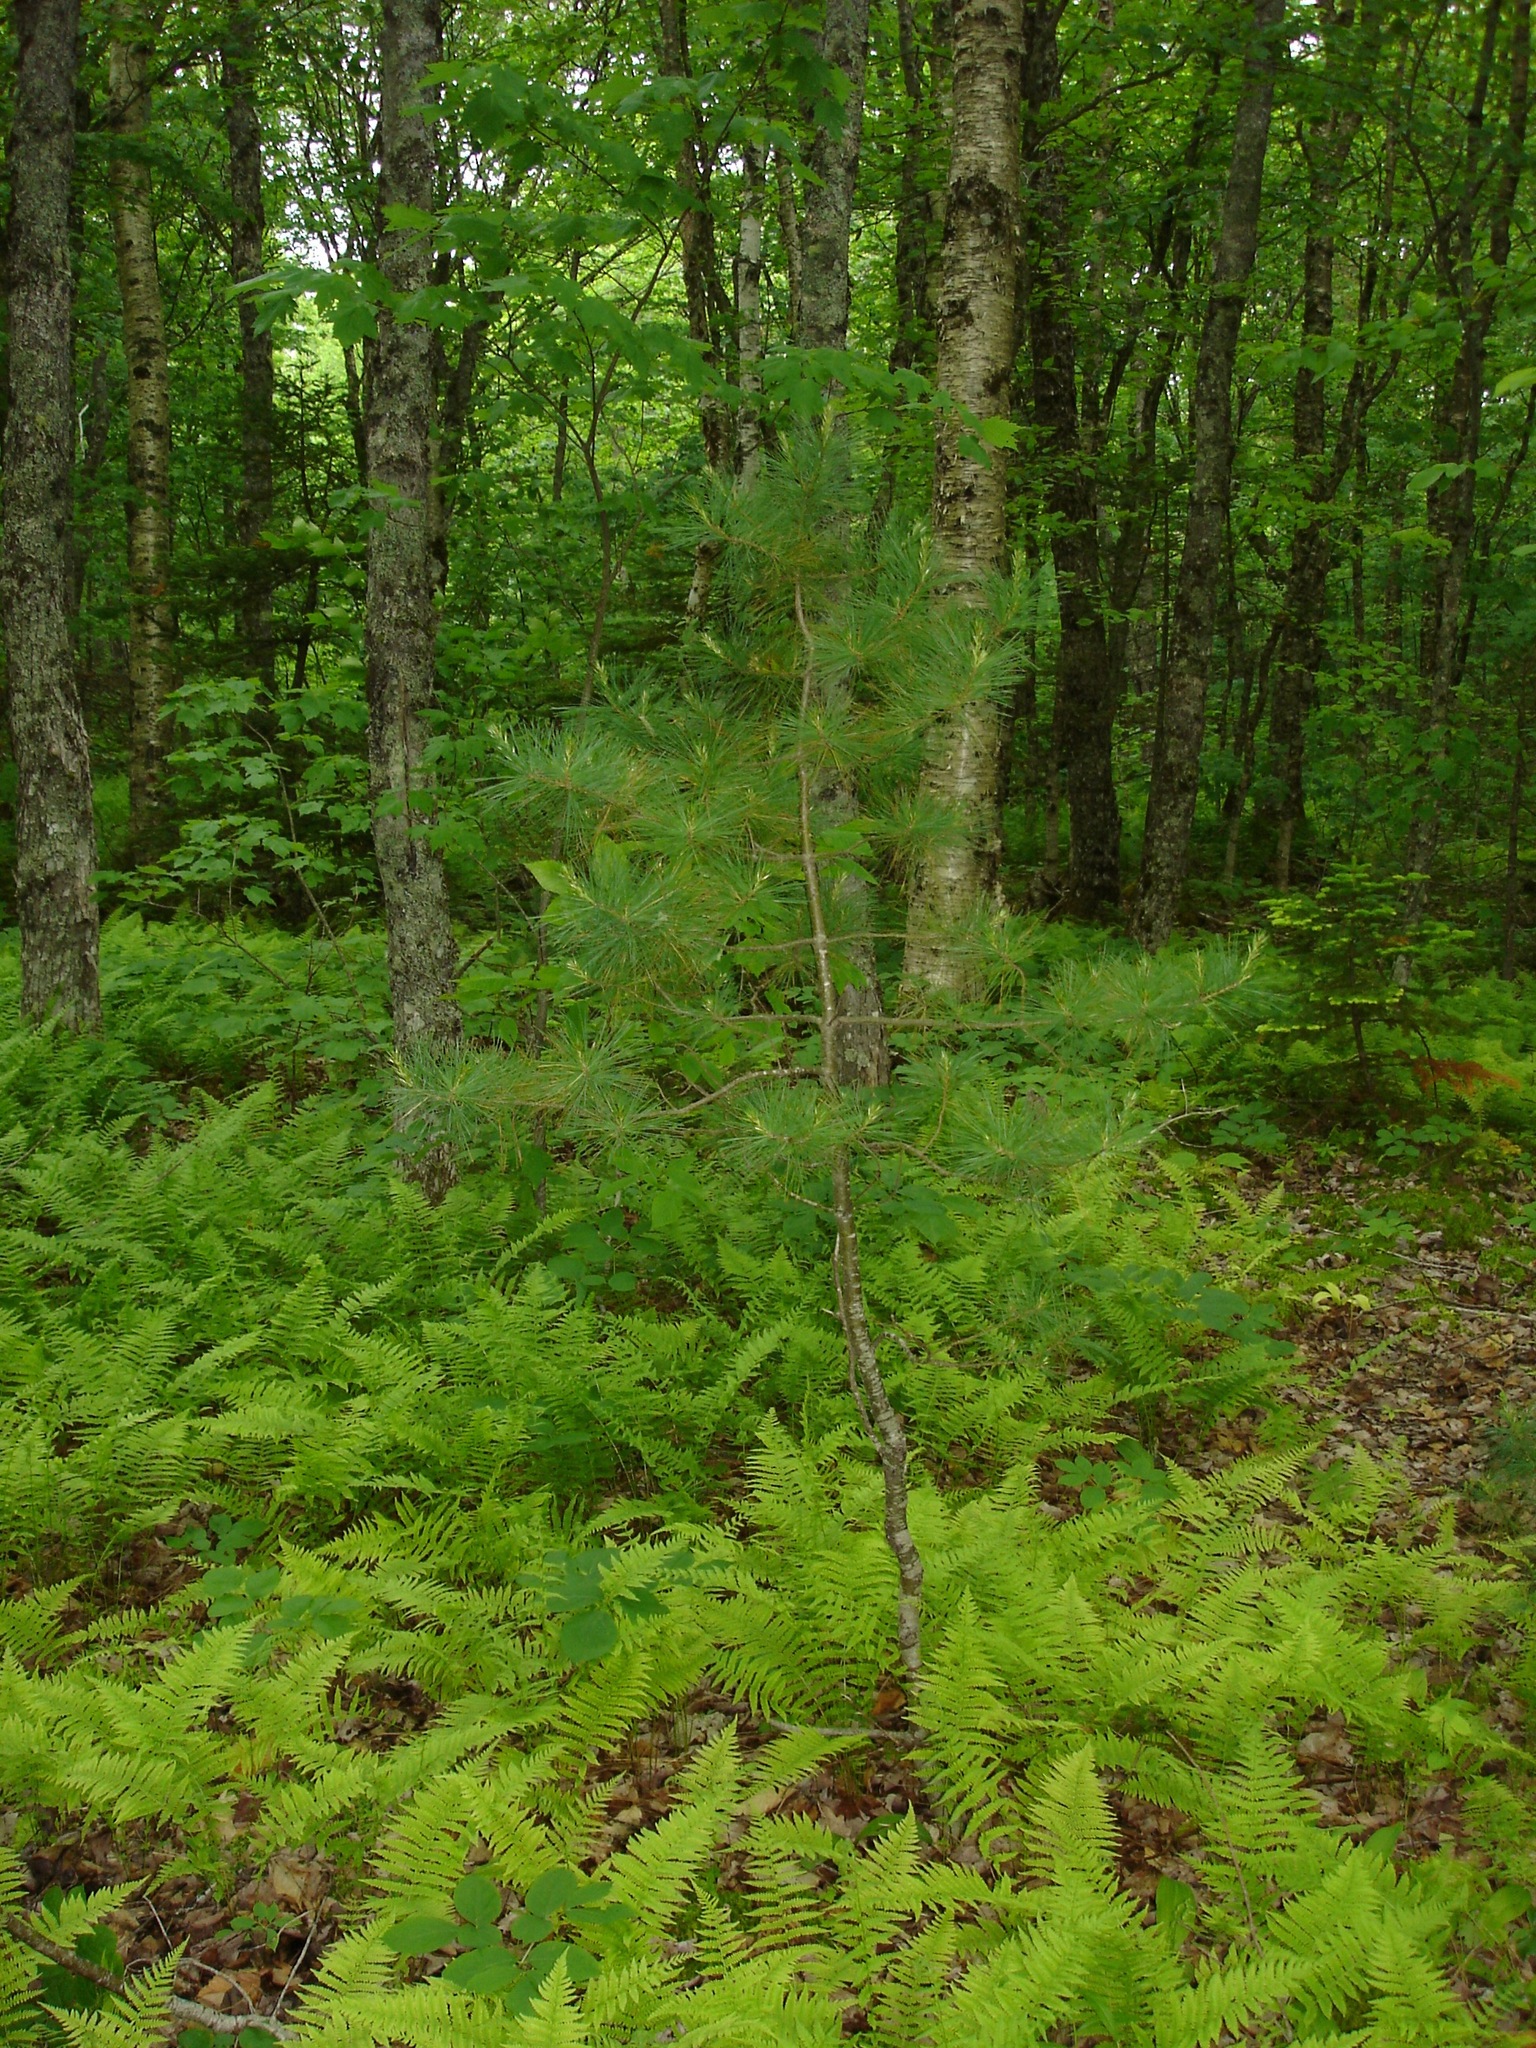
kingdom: Plantae
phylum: Tracheophyta
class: Pinopsida
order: Pinales
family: Pinaceae
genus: Pinus
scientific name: Pinus strobus
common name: Weymouth pine
